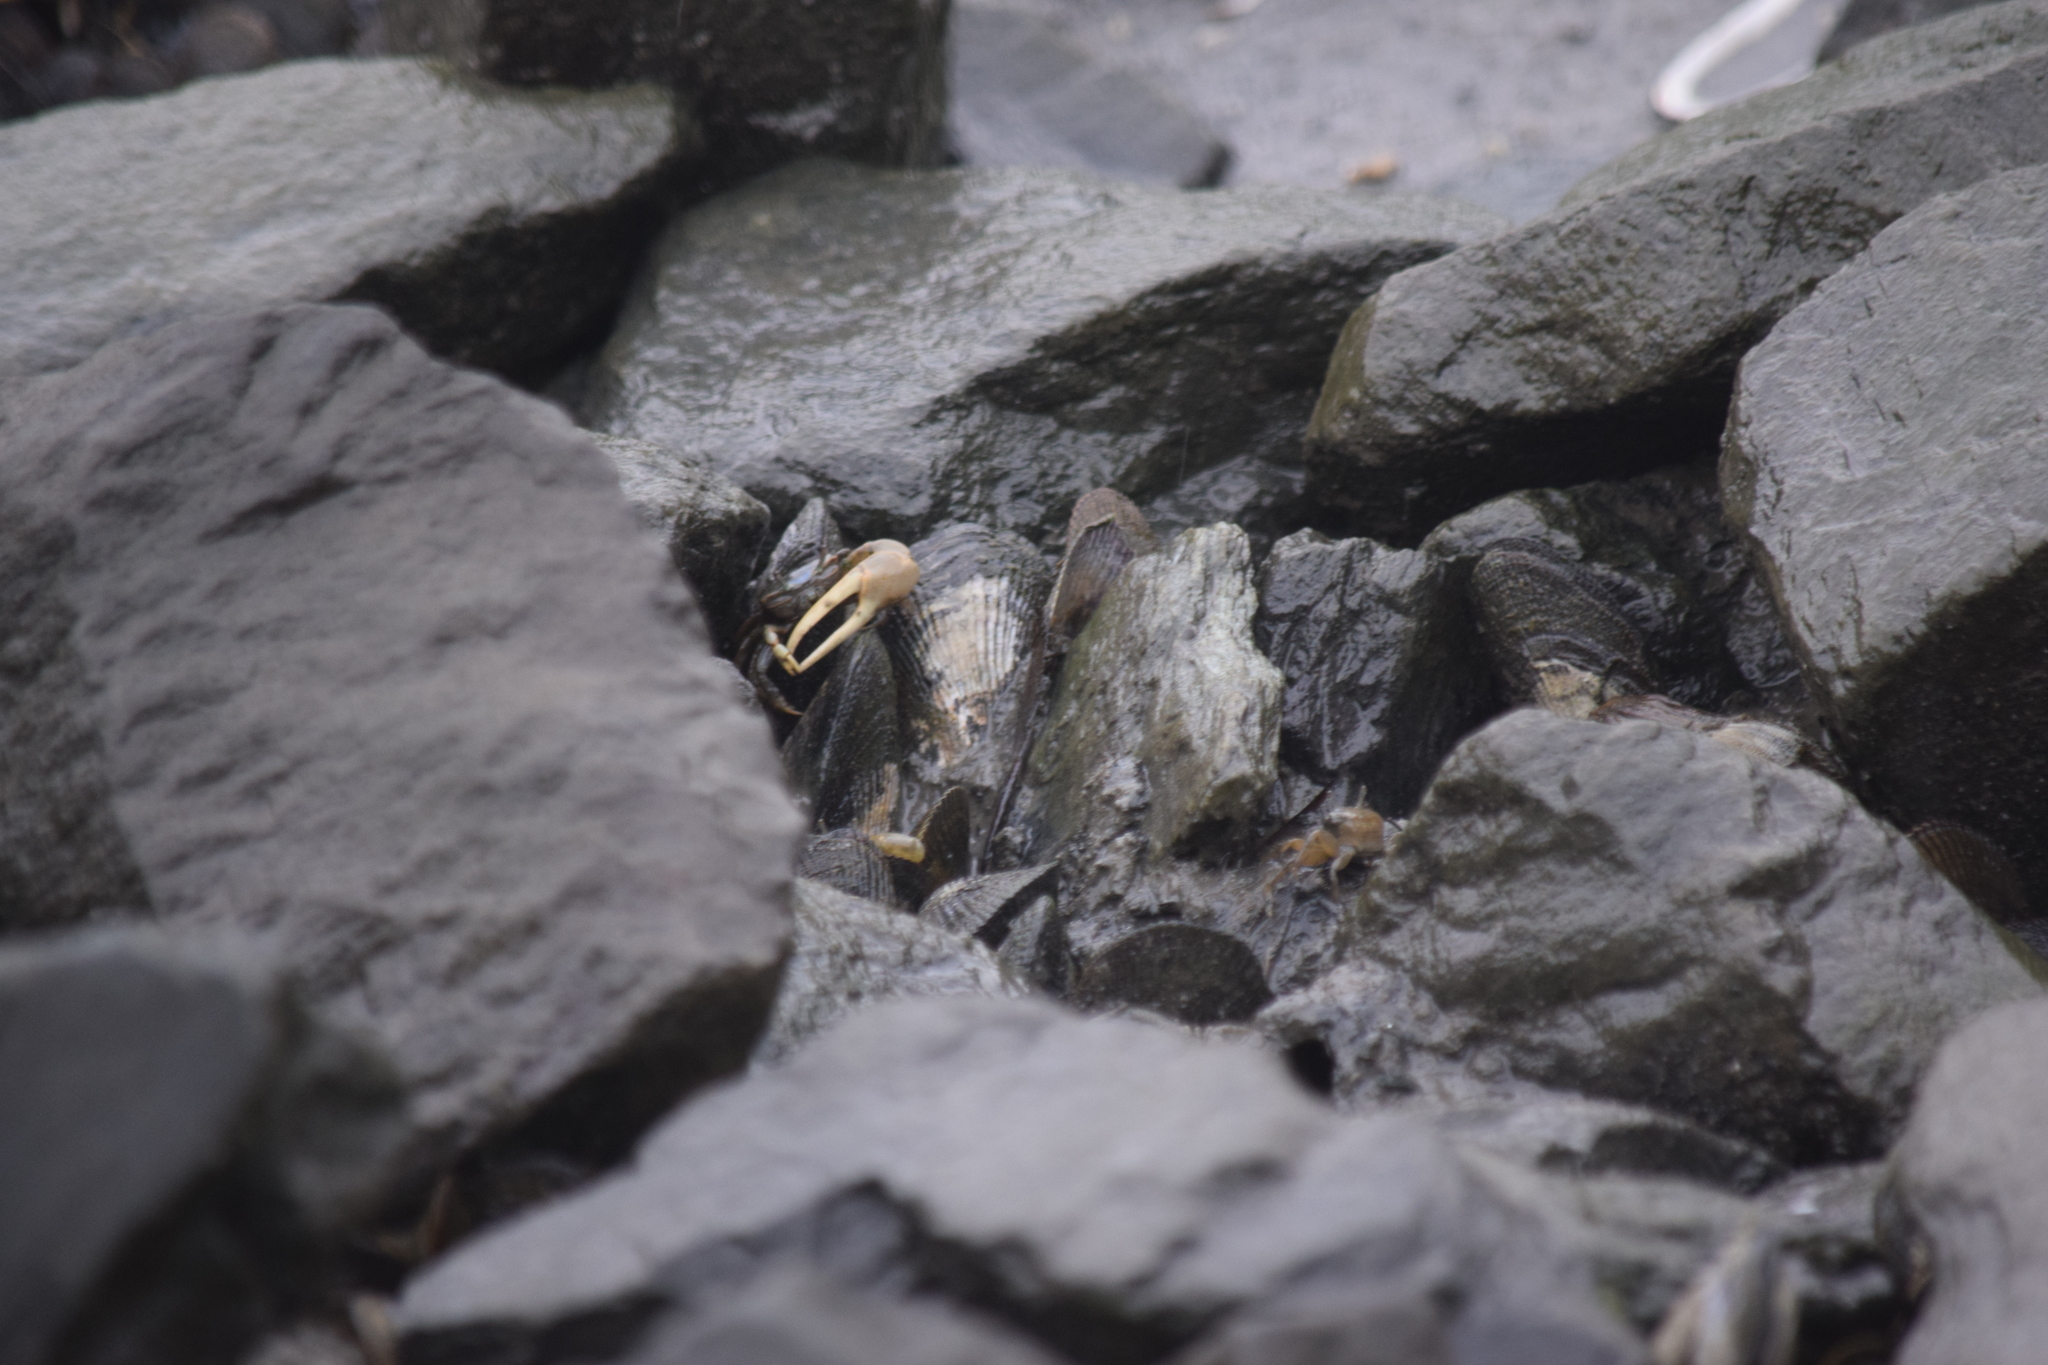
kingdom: Animalia
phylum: Arthropoda
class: Malacostraca
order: Decapoda
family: Ocypodidae
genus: Minuca
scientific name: Minuca pugnax
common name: Mud fiddler crab
